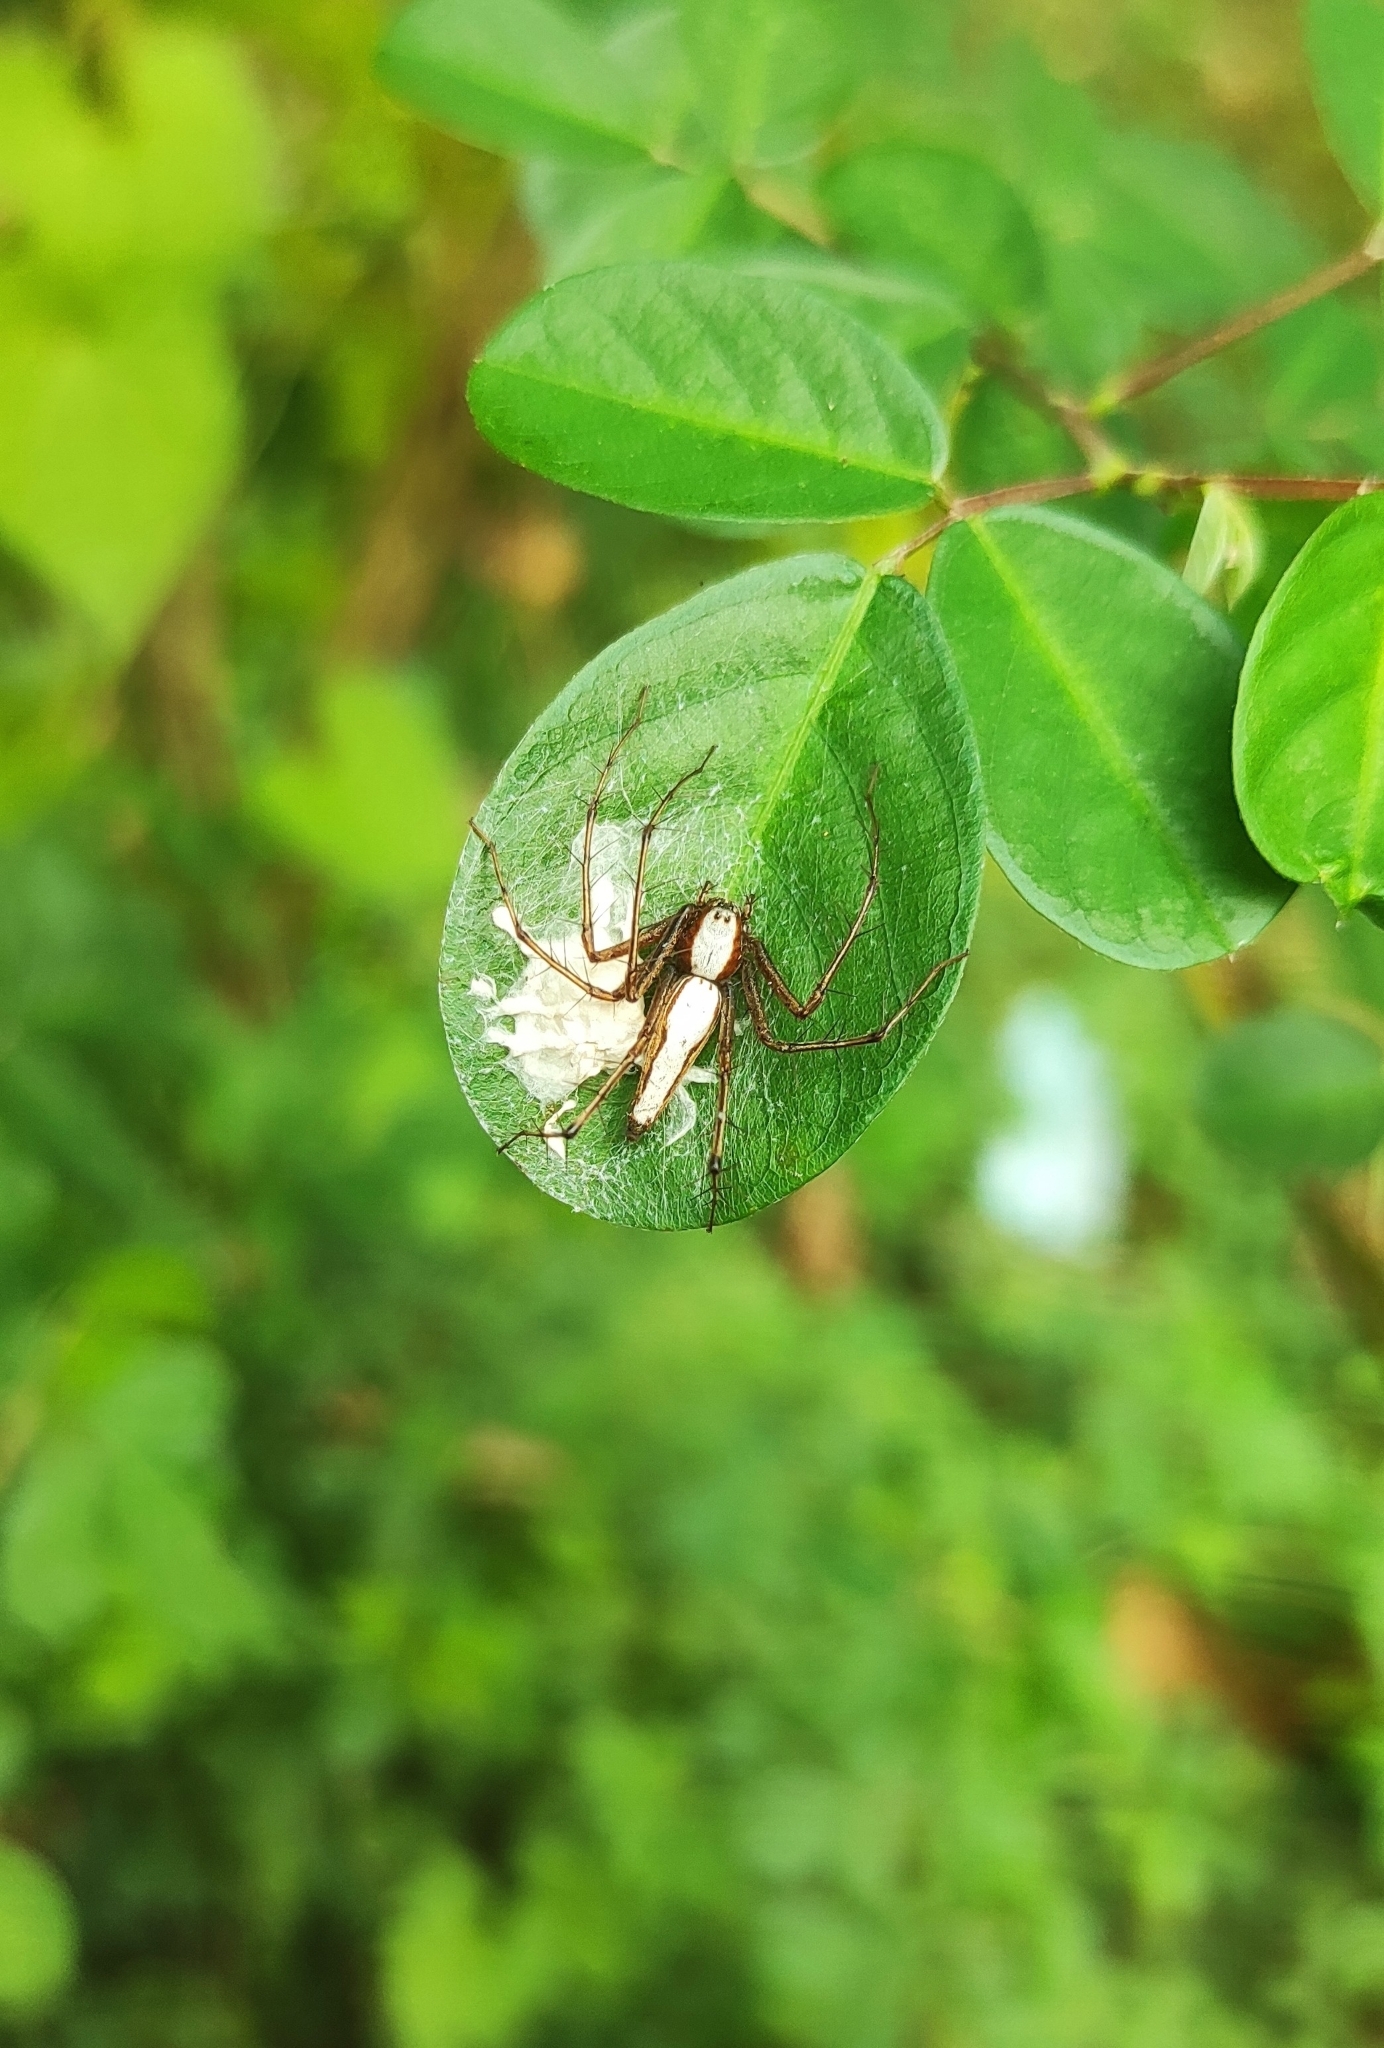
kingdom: Animalia
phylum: Arthropoda
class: Arachnida
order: Araneae
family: Oxyopidae
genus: Oxyopes
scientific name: Oxyopes shweta
